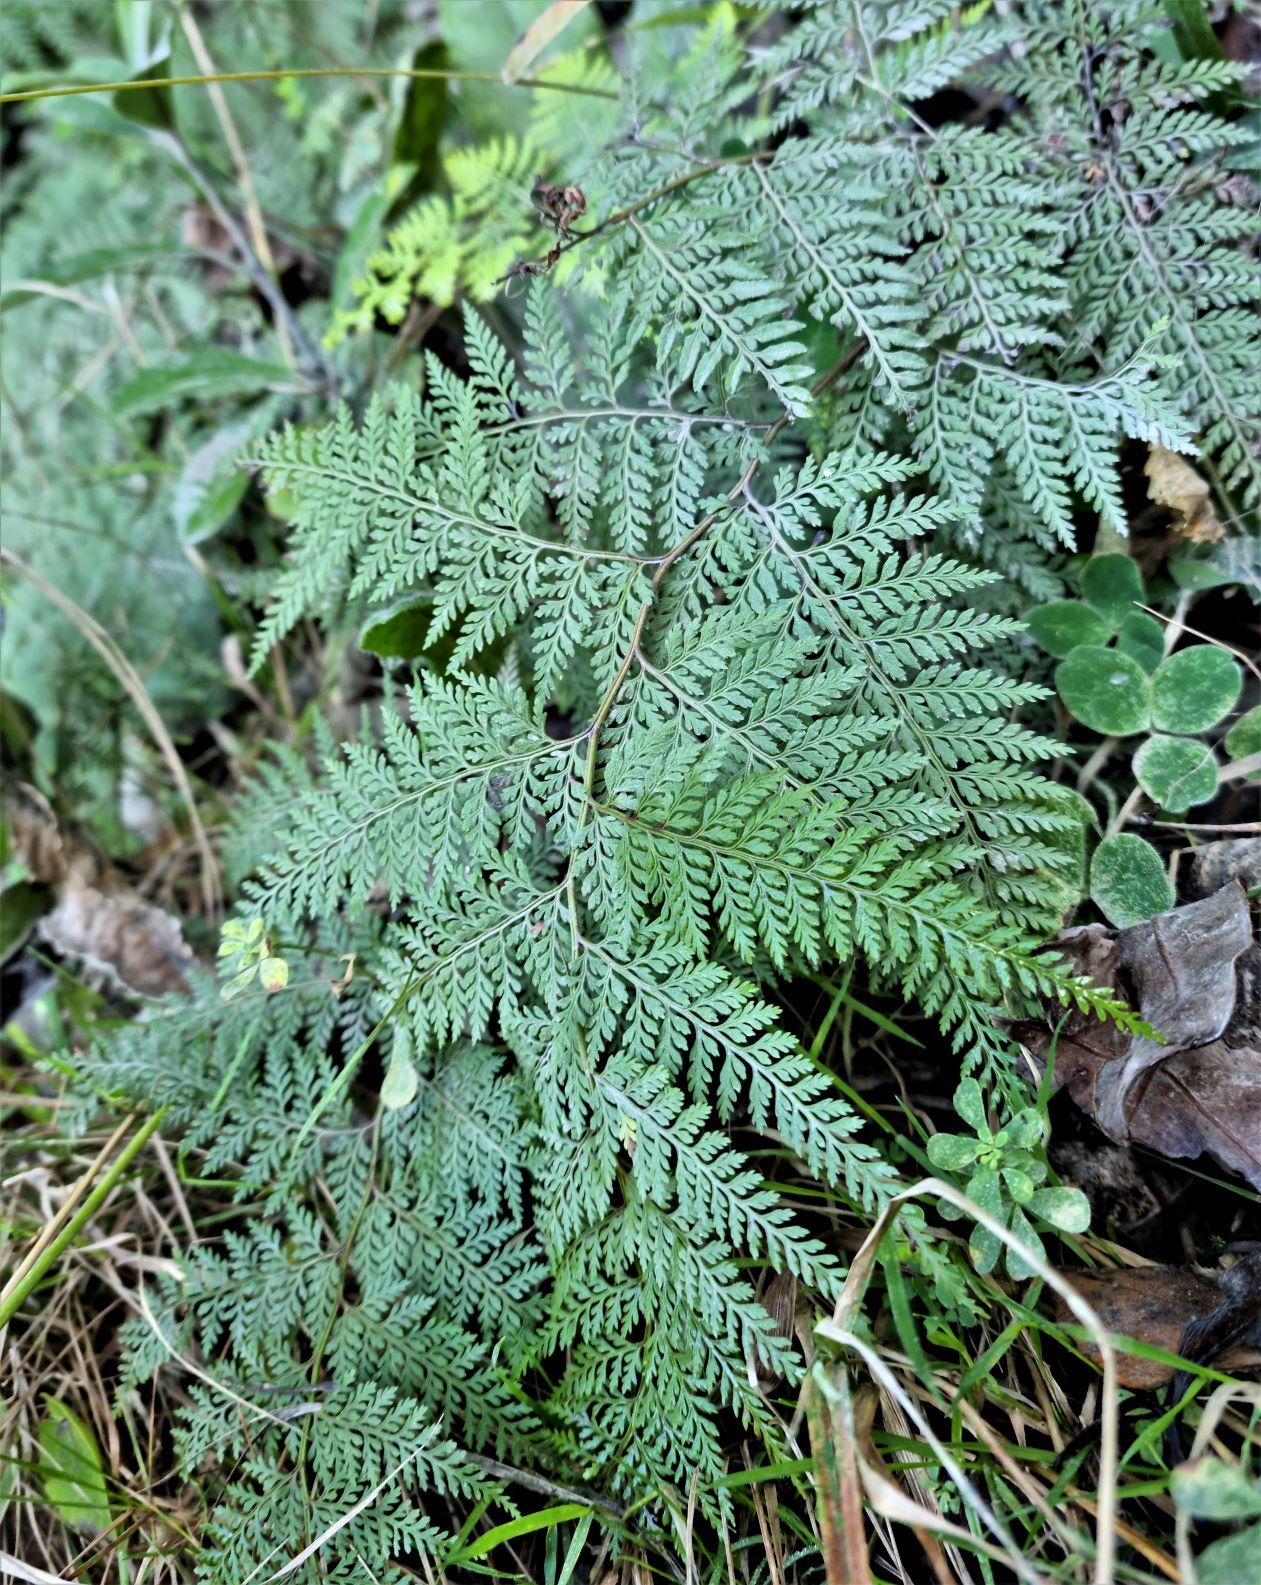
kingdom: Plantae
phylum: Tracheophyta
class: Polypodiopsida
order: Polypodiales
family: Dennstaedtiaceae
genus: Paesia
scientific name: Paesia scaberula
